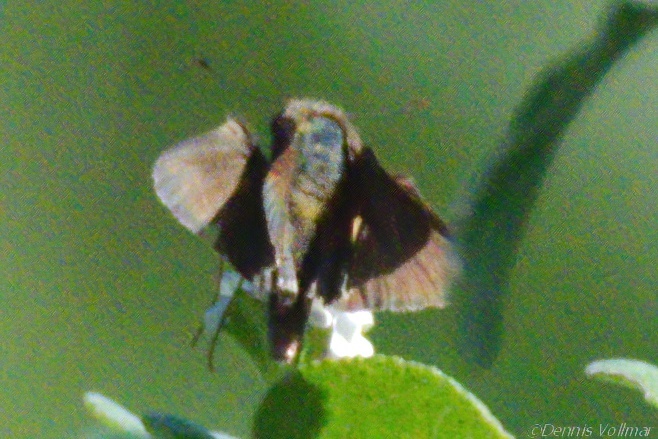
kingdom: Animalia
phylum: Arthropoda
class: Insecta
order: Lepidoptera
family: Hesperiidae
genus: Panoquina
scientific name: Panoquina ocola
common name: Ocola skipper
